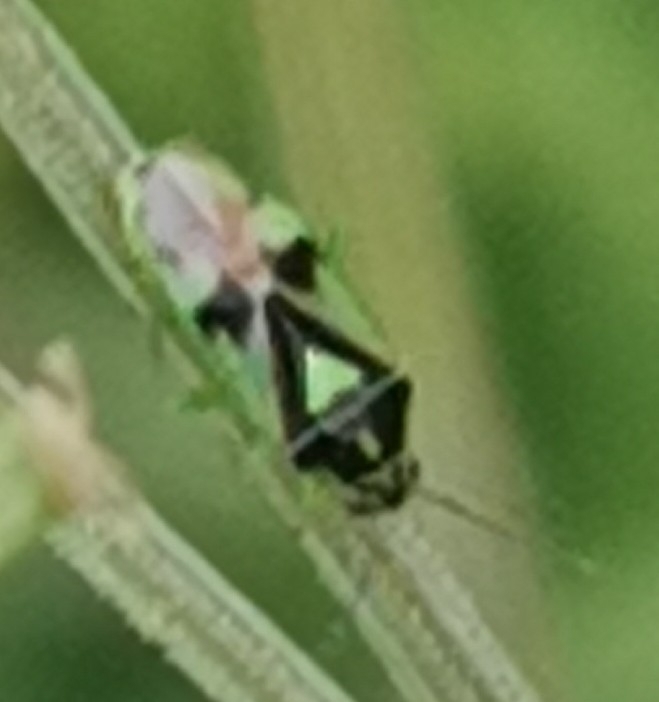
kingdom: Animalia
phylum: Arthropoda
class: Insecta
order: Hemiptera
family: Miridae
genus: Orthops
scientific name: Orthops campestris
